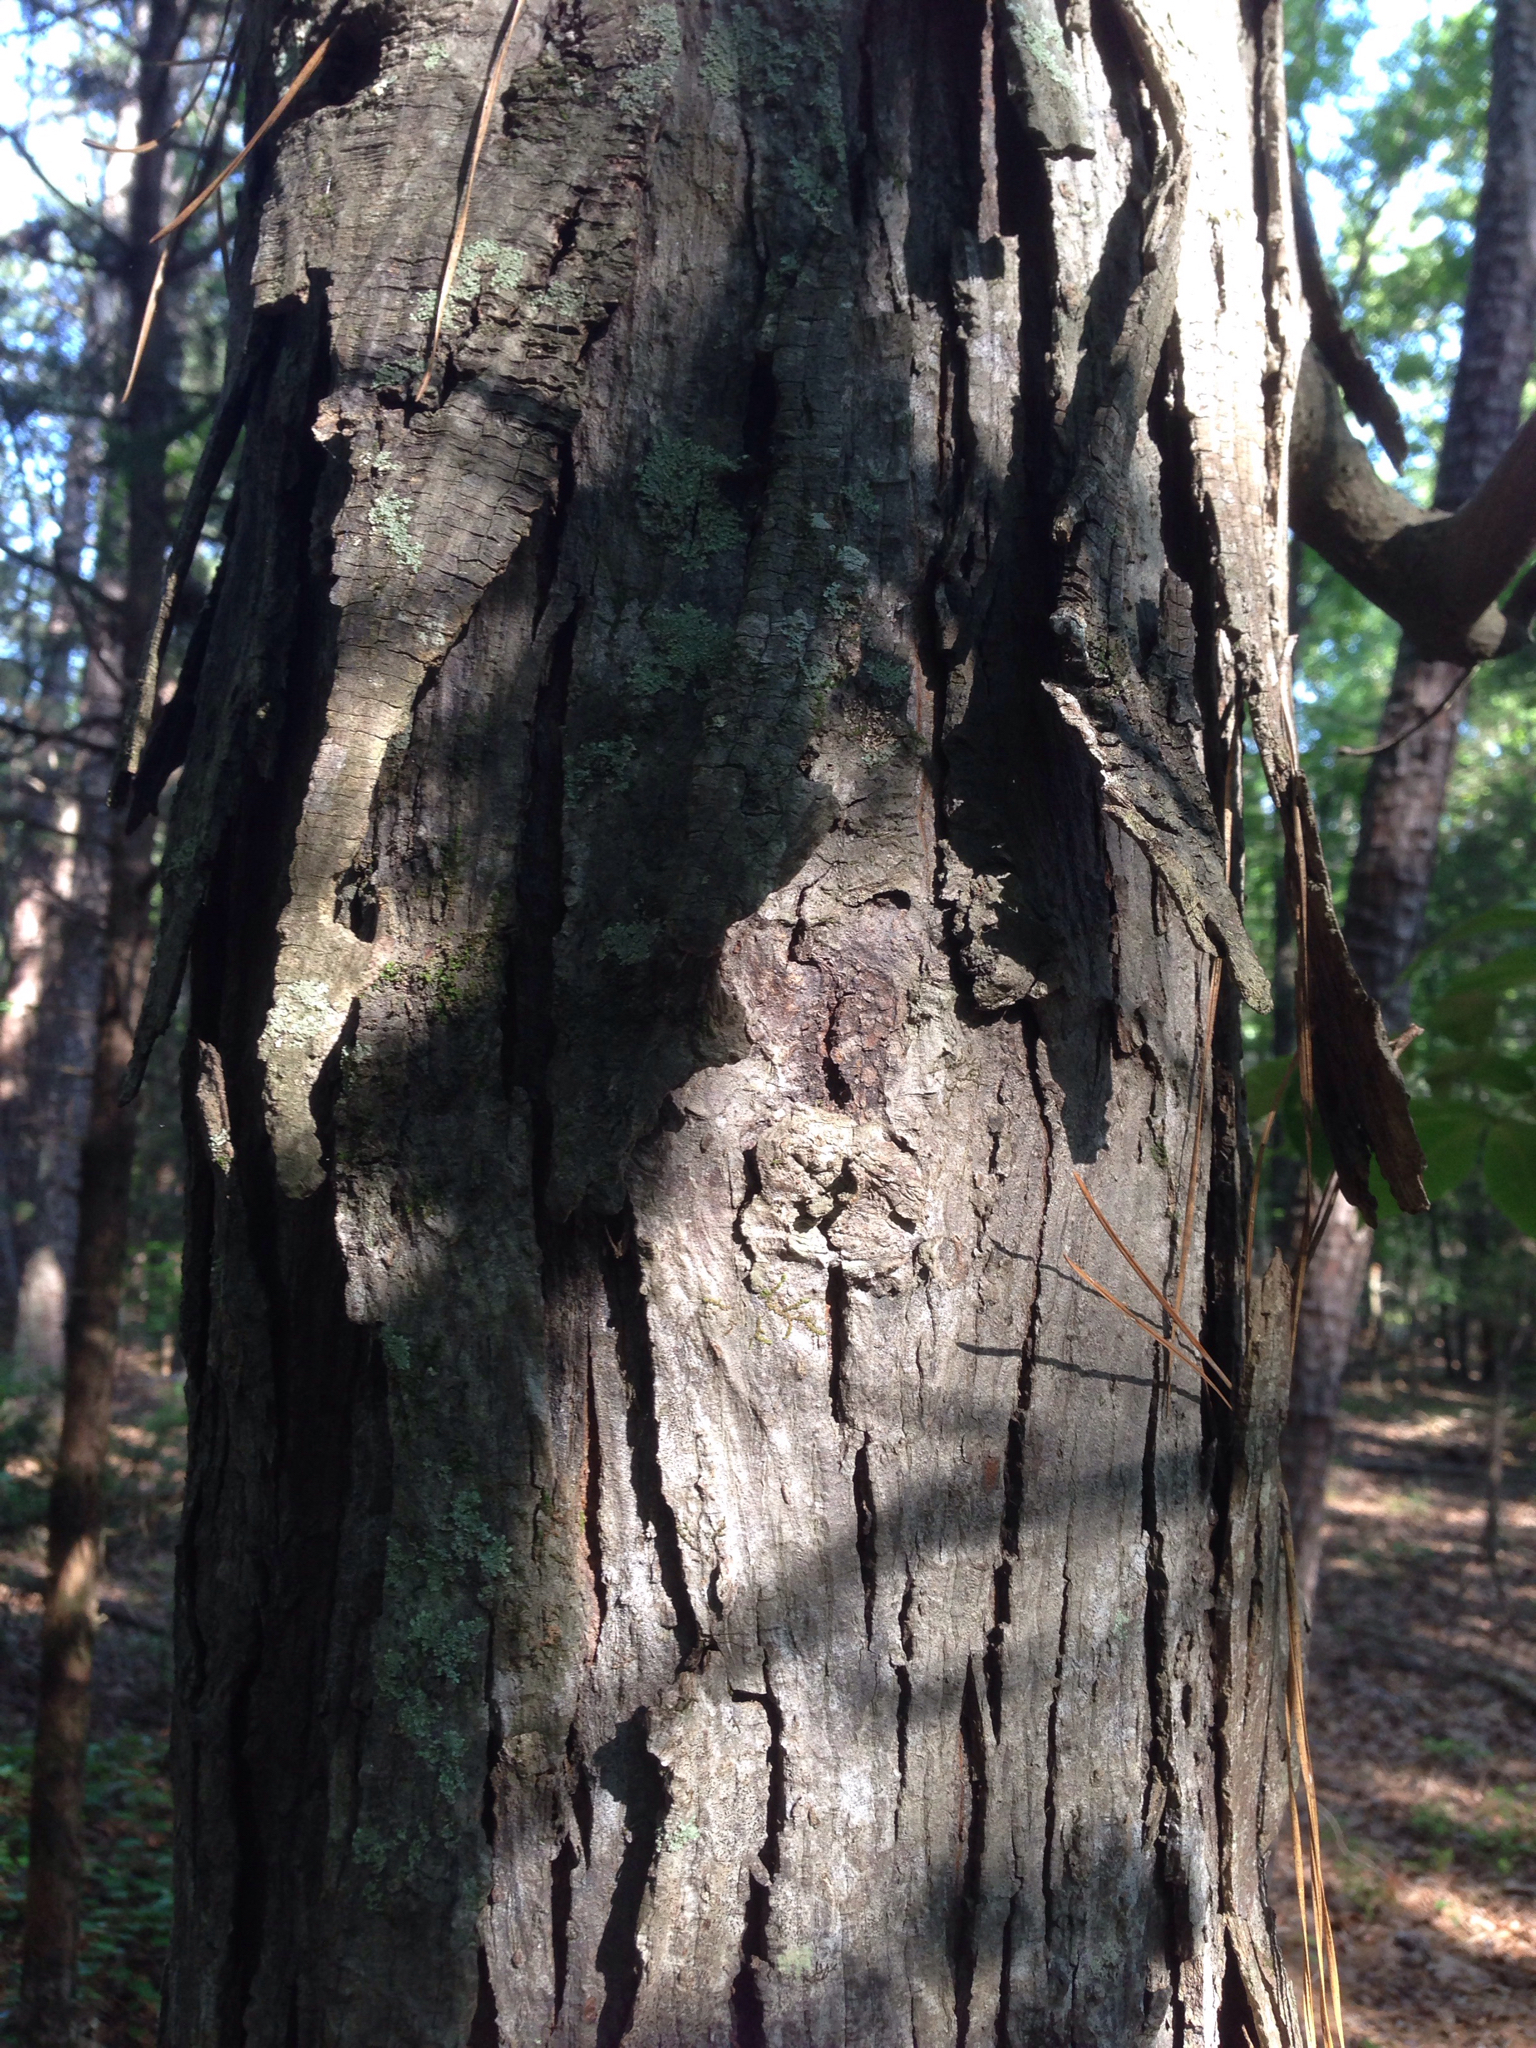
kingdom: Plantae
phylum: Tracheophyta
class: Magnoliopsida
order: Fagales
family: Juglandaceae
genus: Carya
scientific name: Carya ovata
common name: Shagbark hickory
